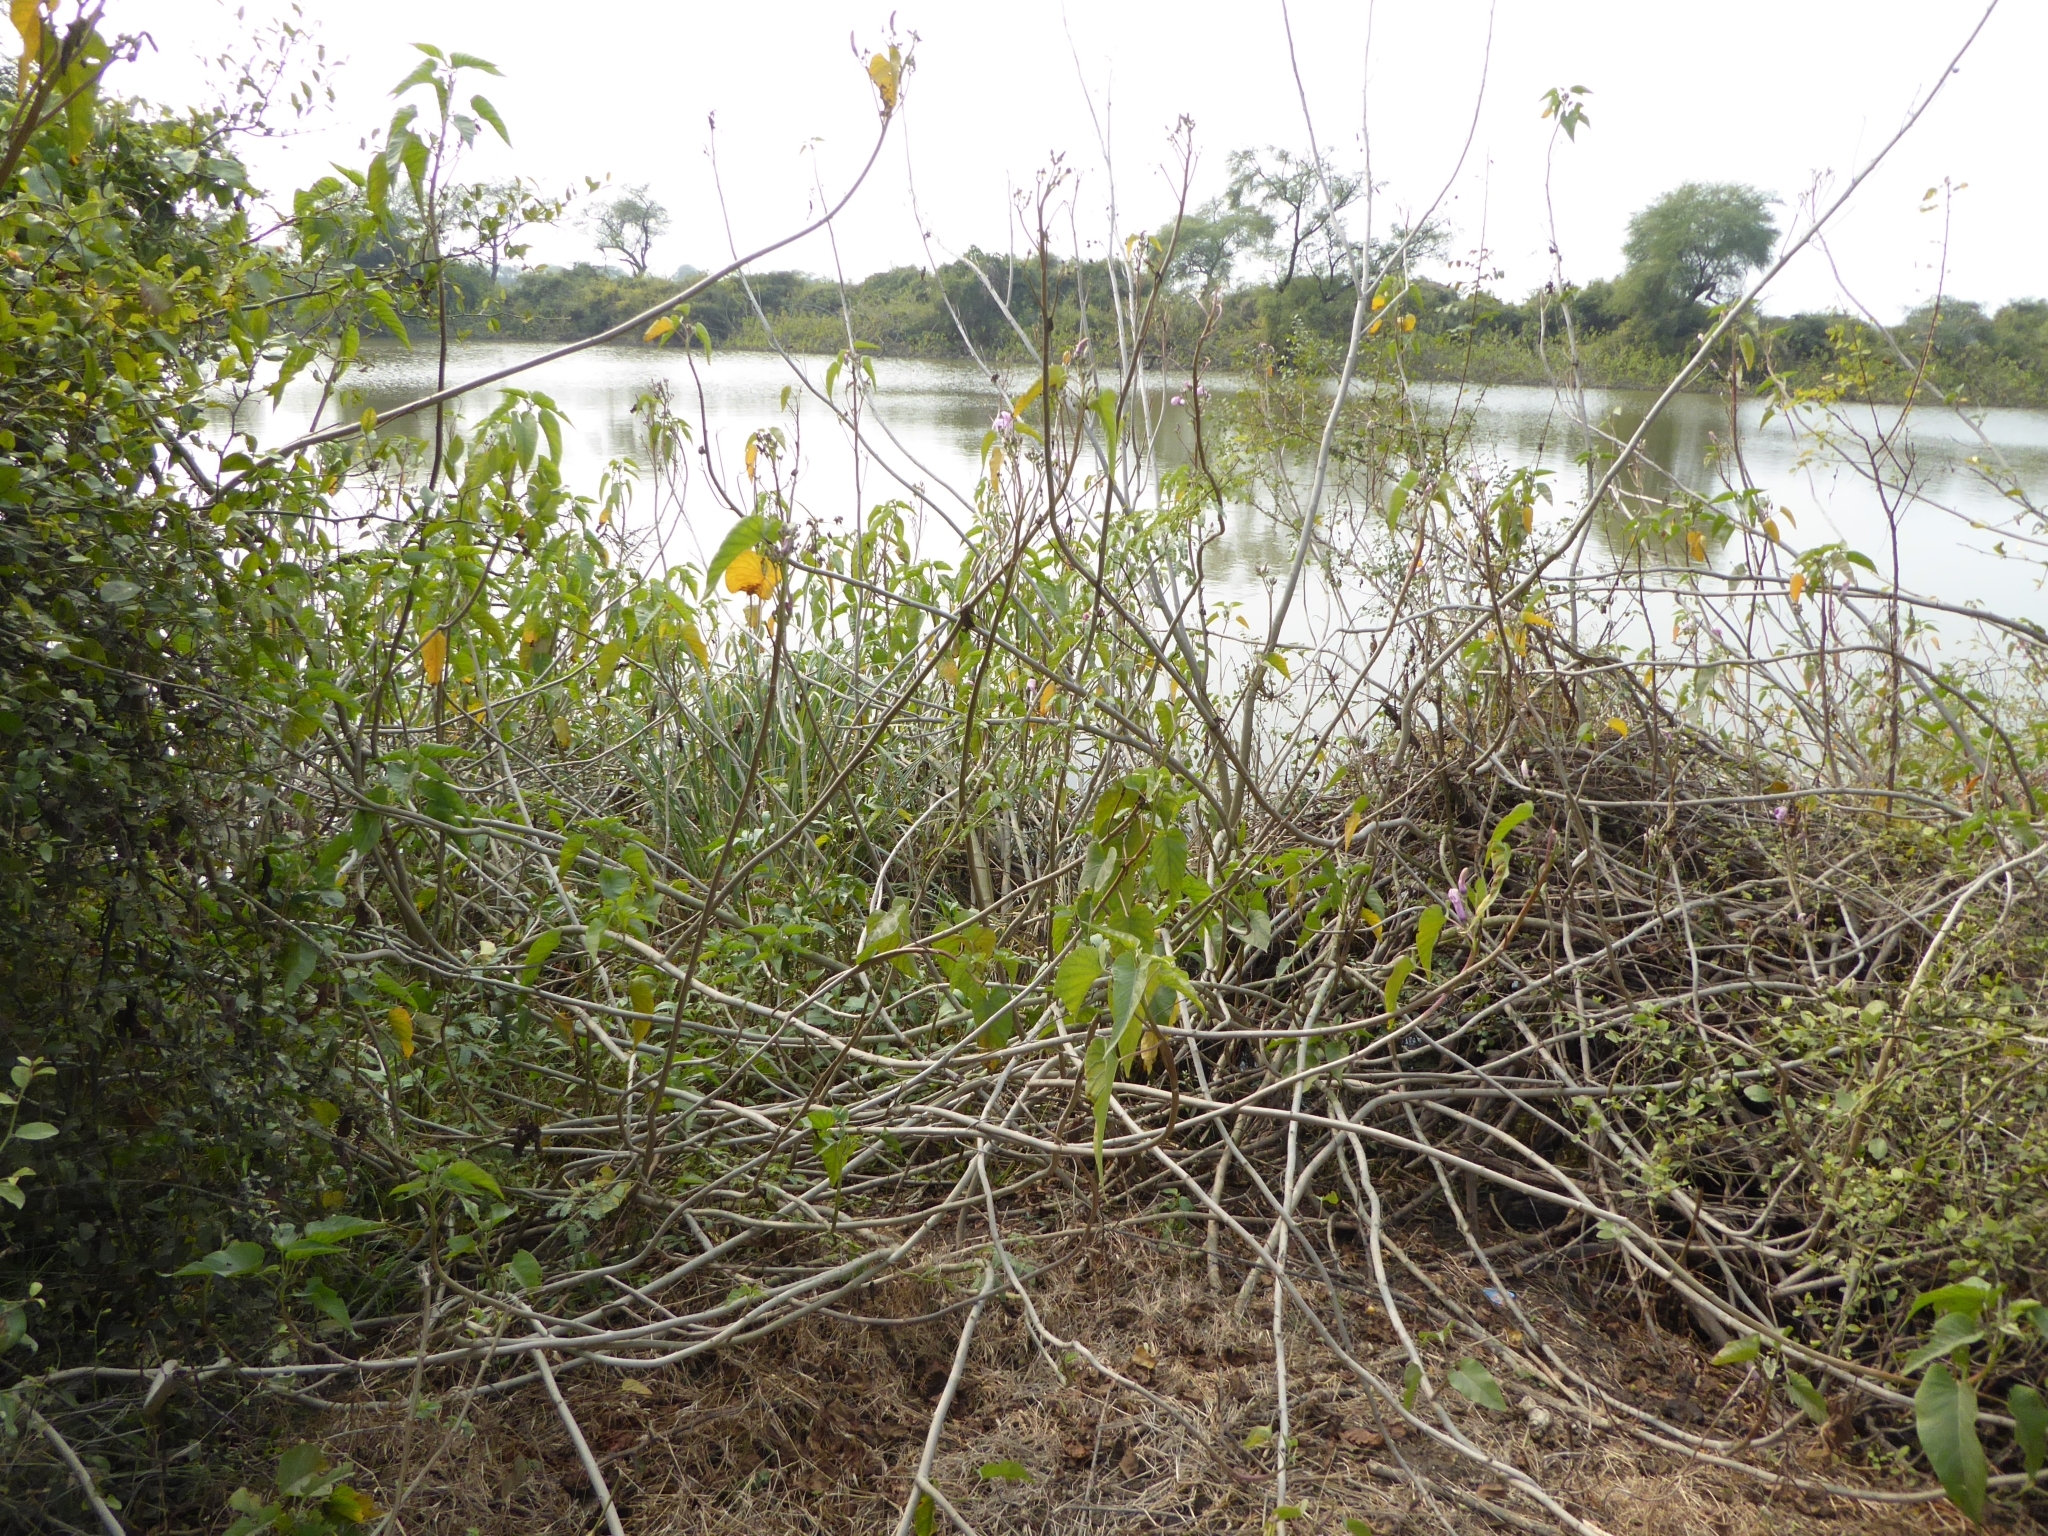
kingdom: Plantae
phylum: Tracheophyta
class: Magnoliopsida
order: Solanales
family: Convolvulaceae
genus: Ipomoea
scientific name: Ipomoea carnea
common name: Morning-glory
